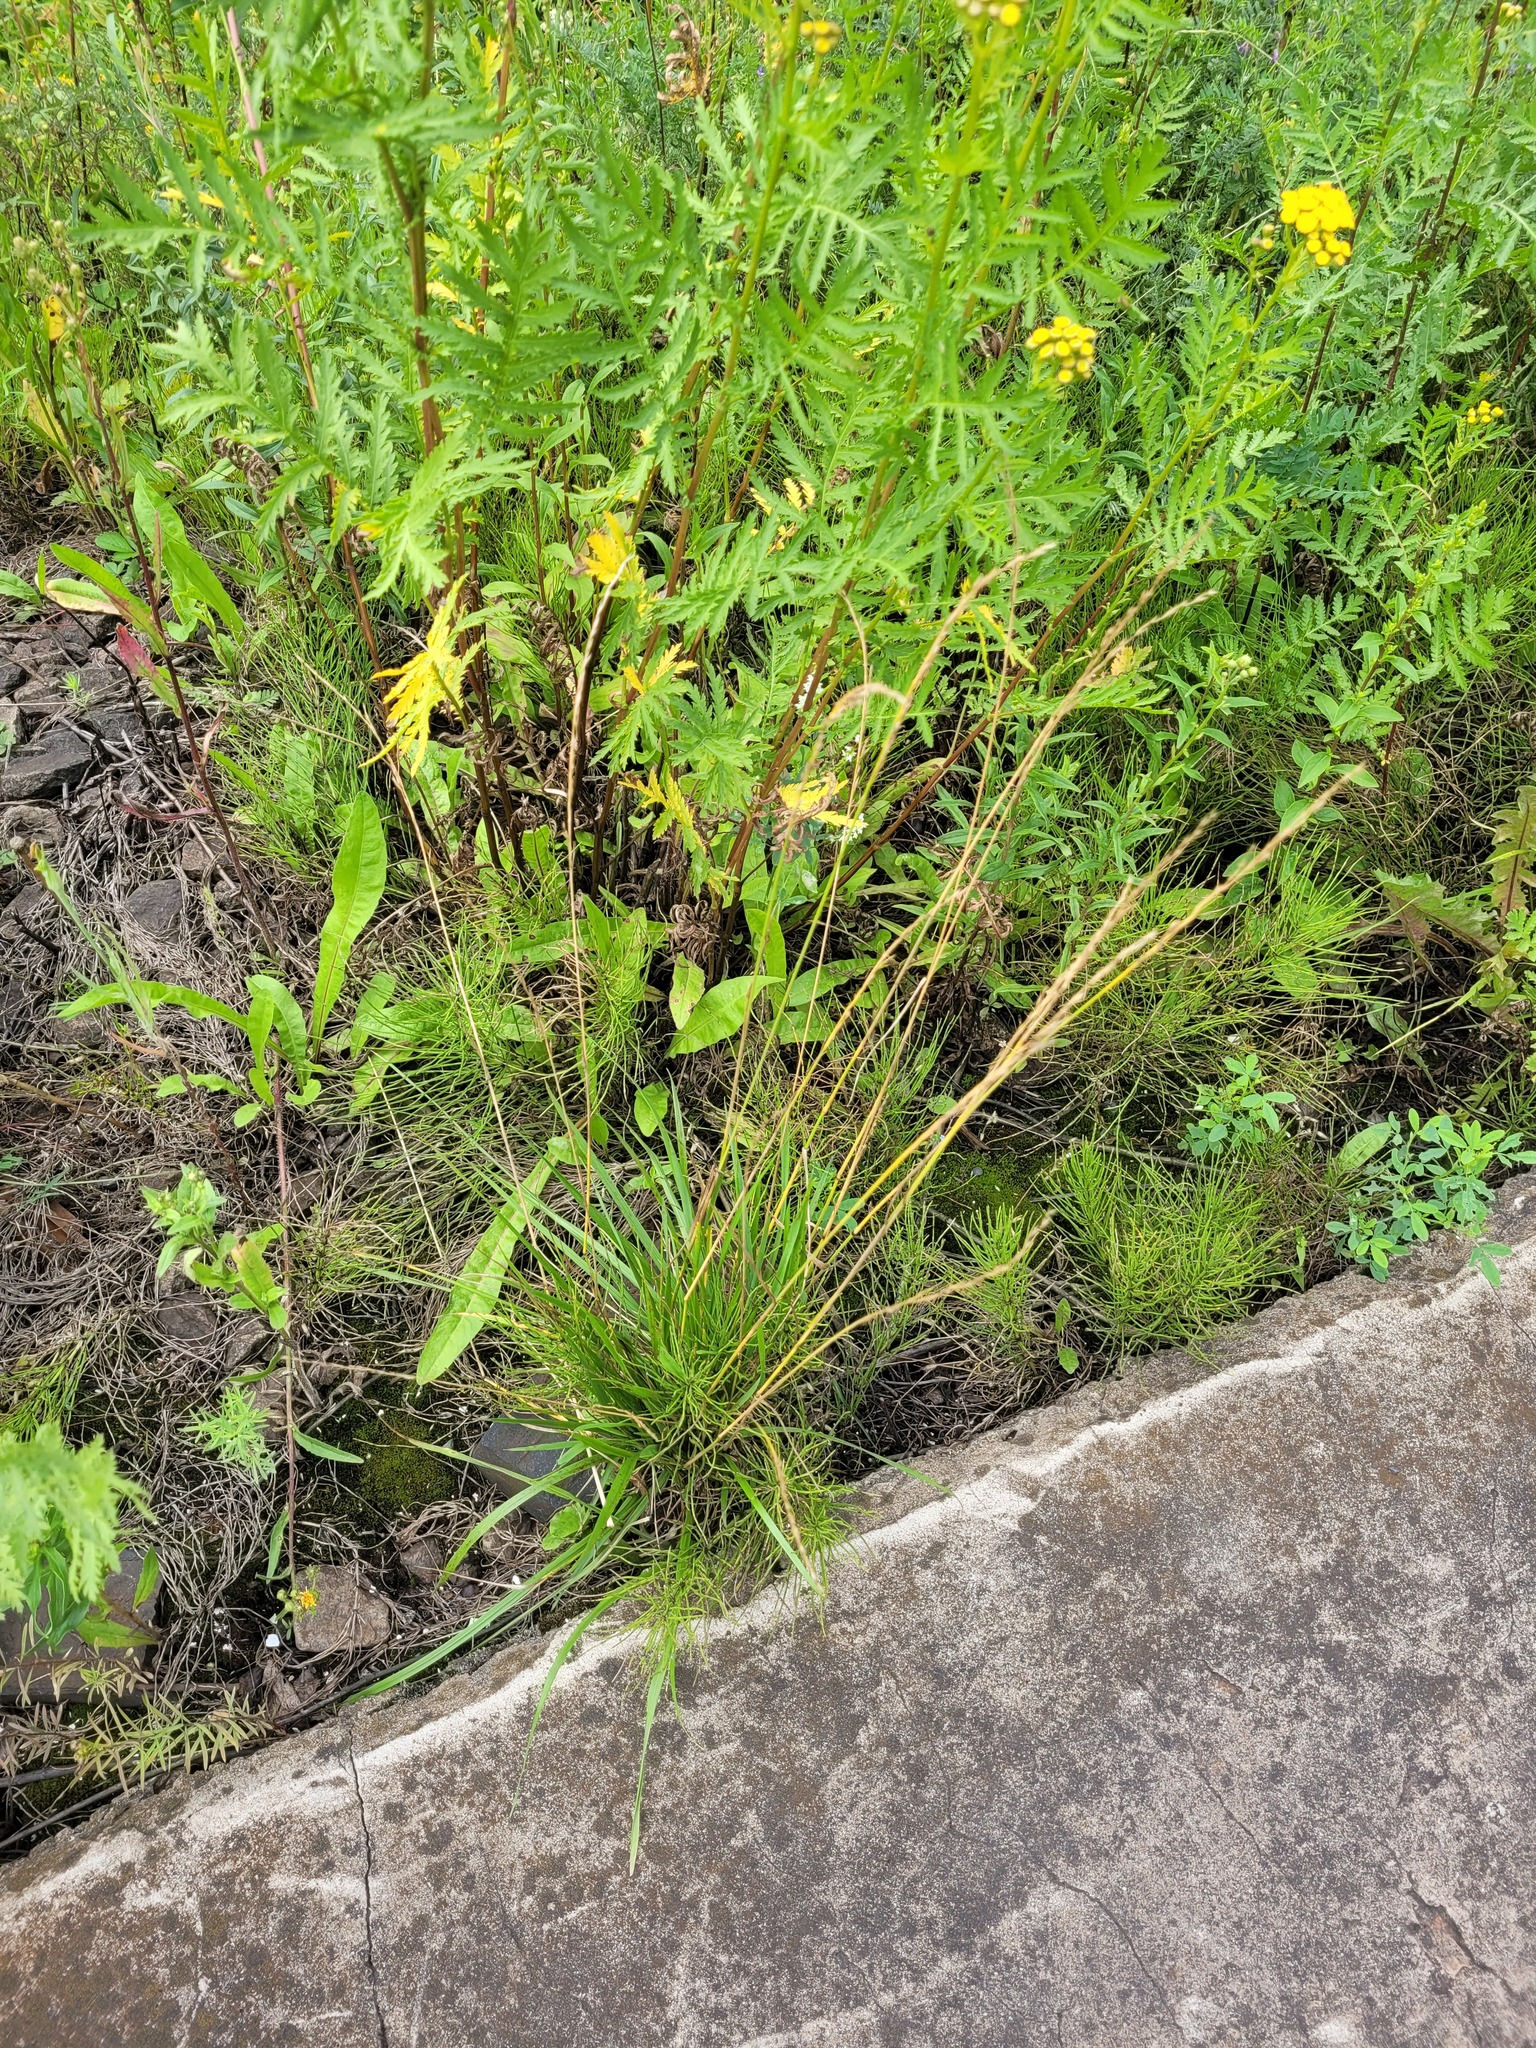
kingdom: Plantae
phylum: Tracheophyta
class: Liliopsida
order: Poales
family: Poaceae
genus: Lolium
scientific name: Lolium pratense
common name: Dover grass
